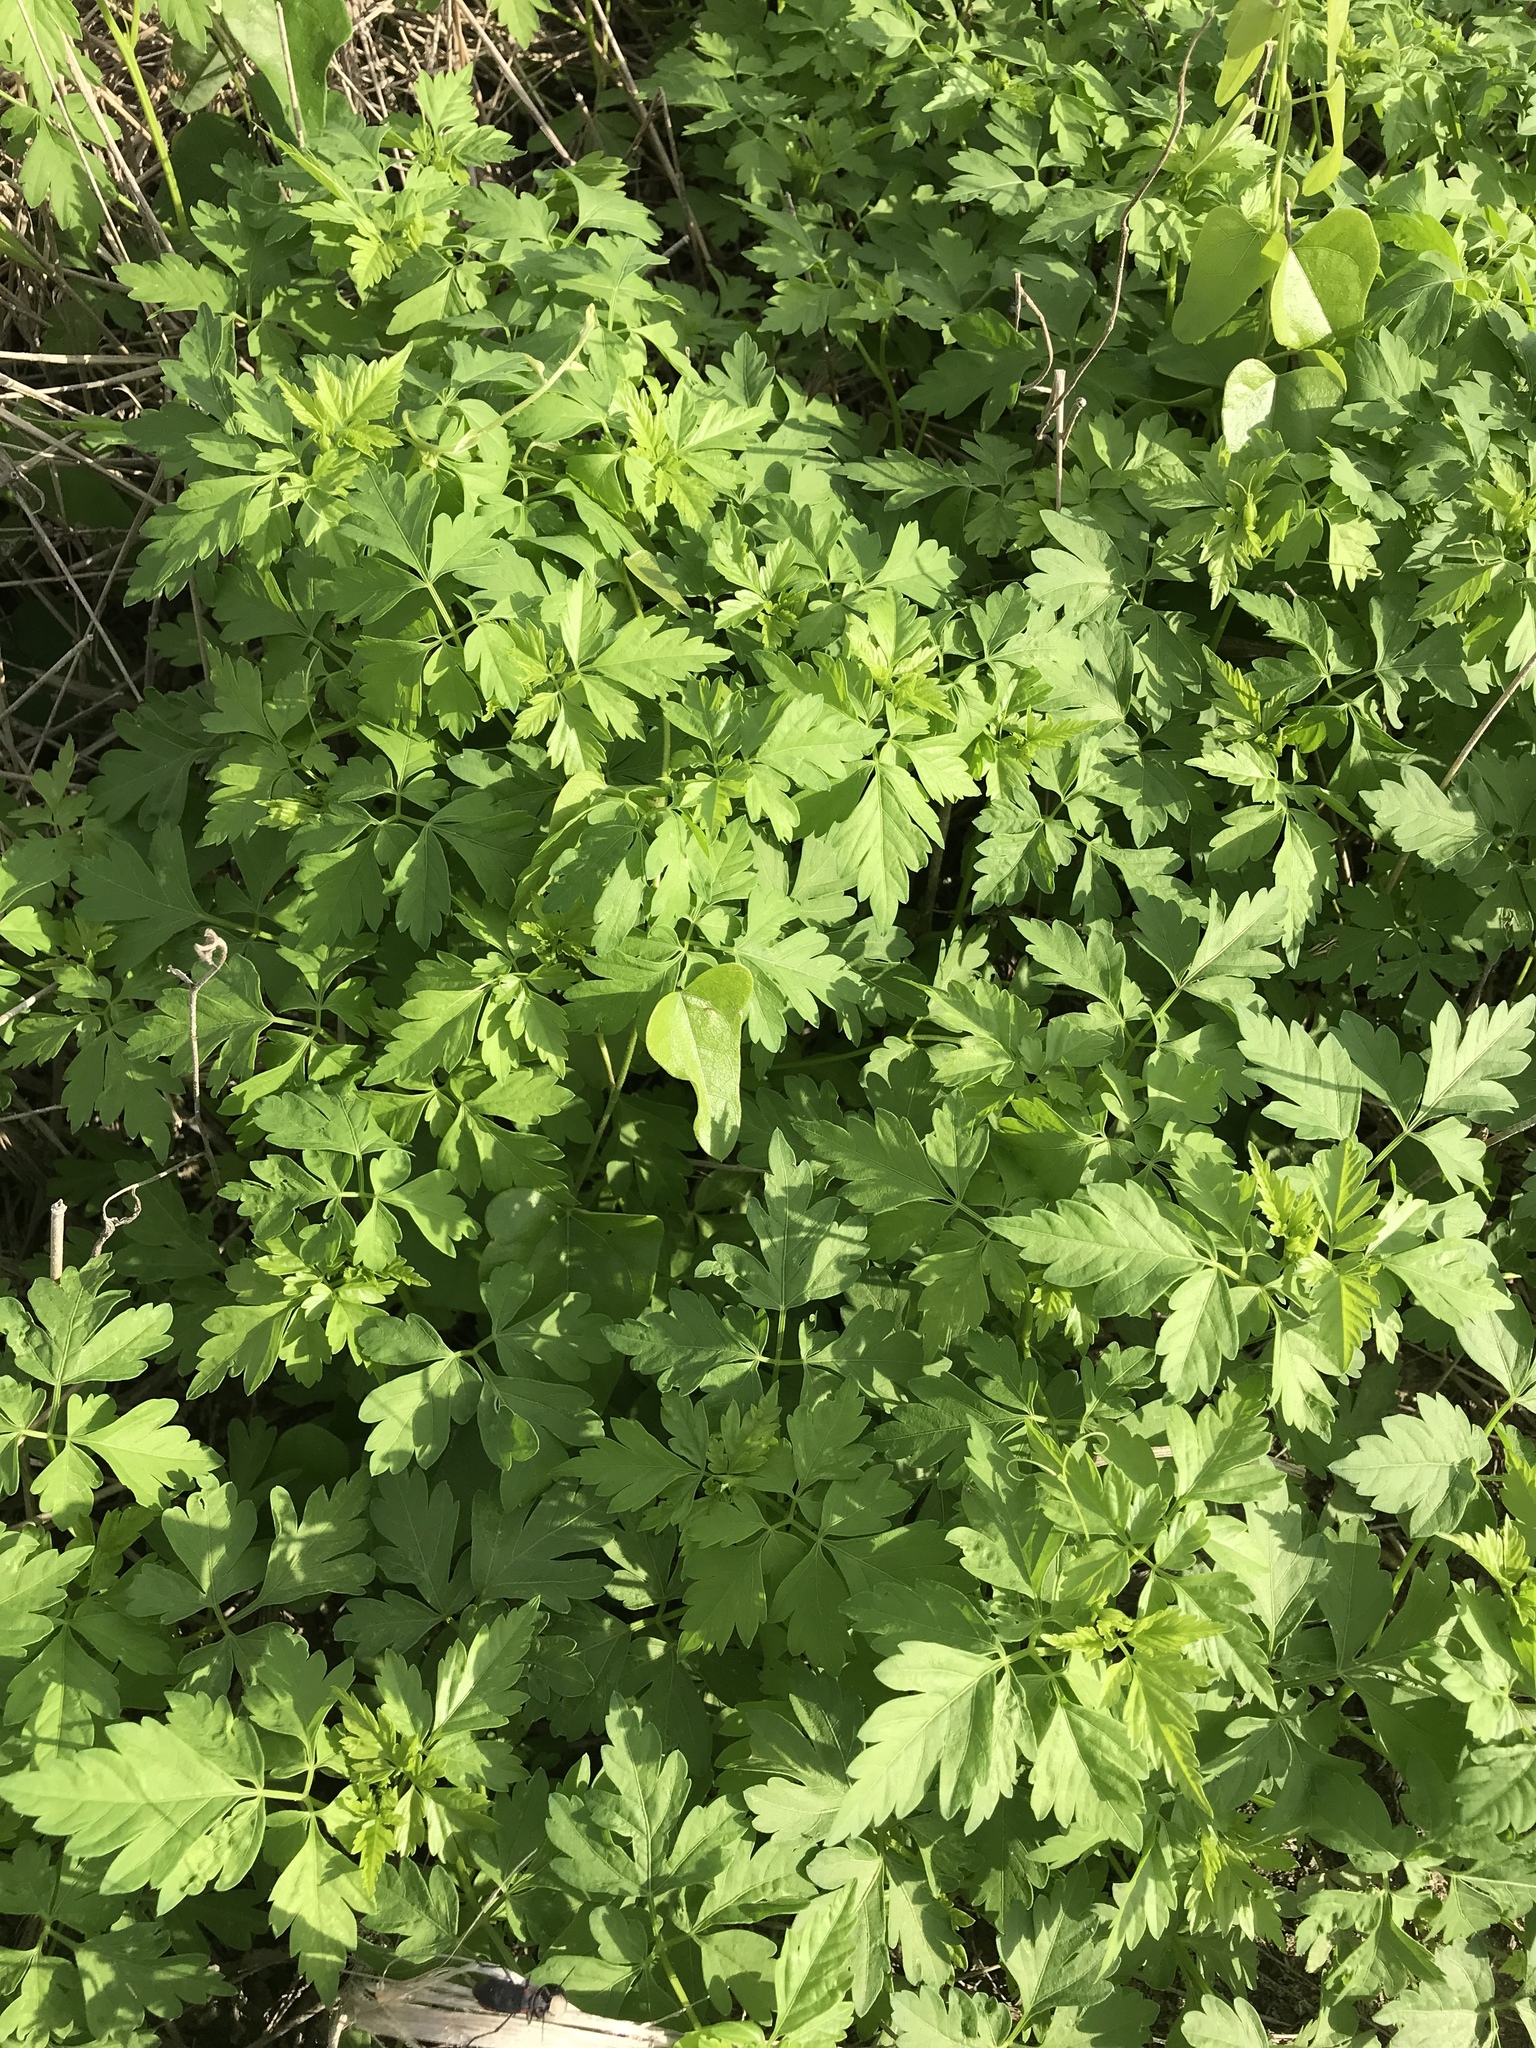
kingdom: Plantae
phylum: Tracheophyta
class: Magnoliopsida
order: Sapindales
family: Sapindaceae
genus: Cardiospermum
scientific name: Cardiospermum halicacabum
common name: Balloon vine
